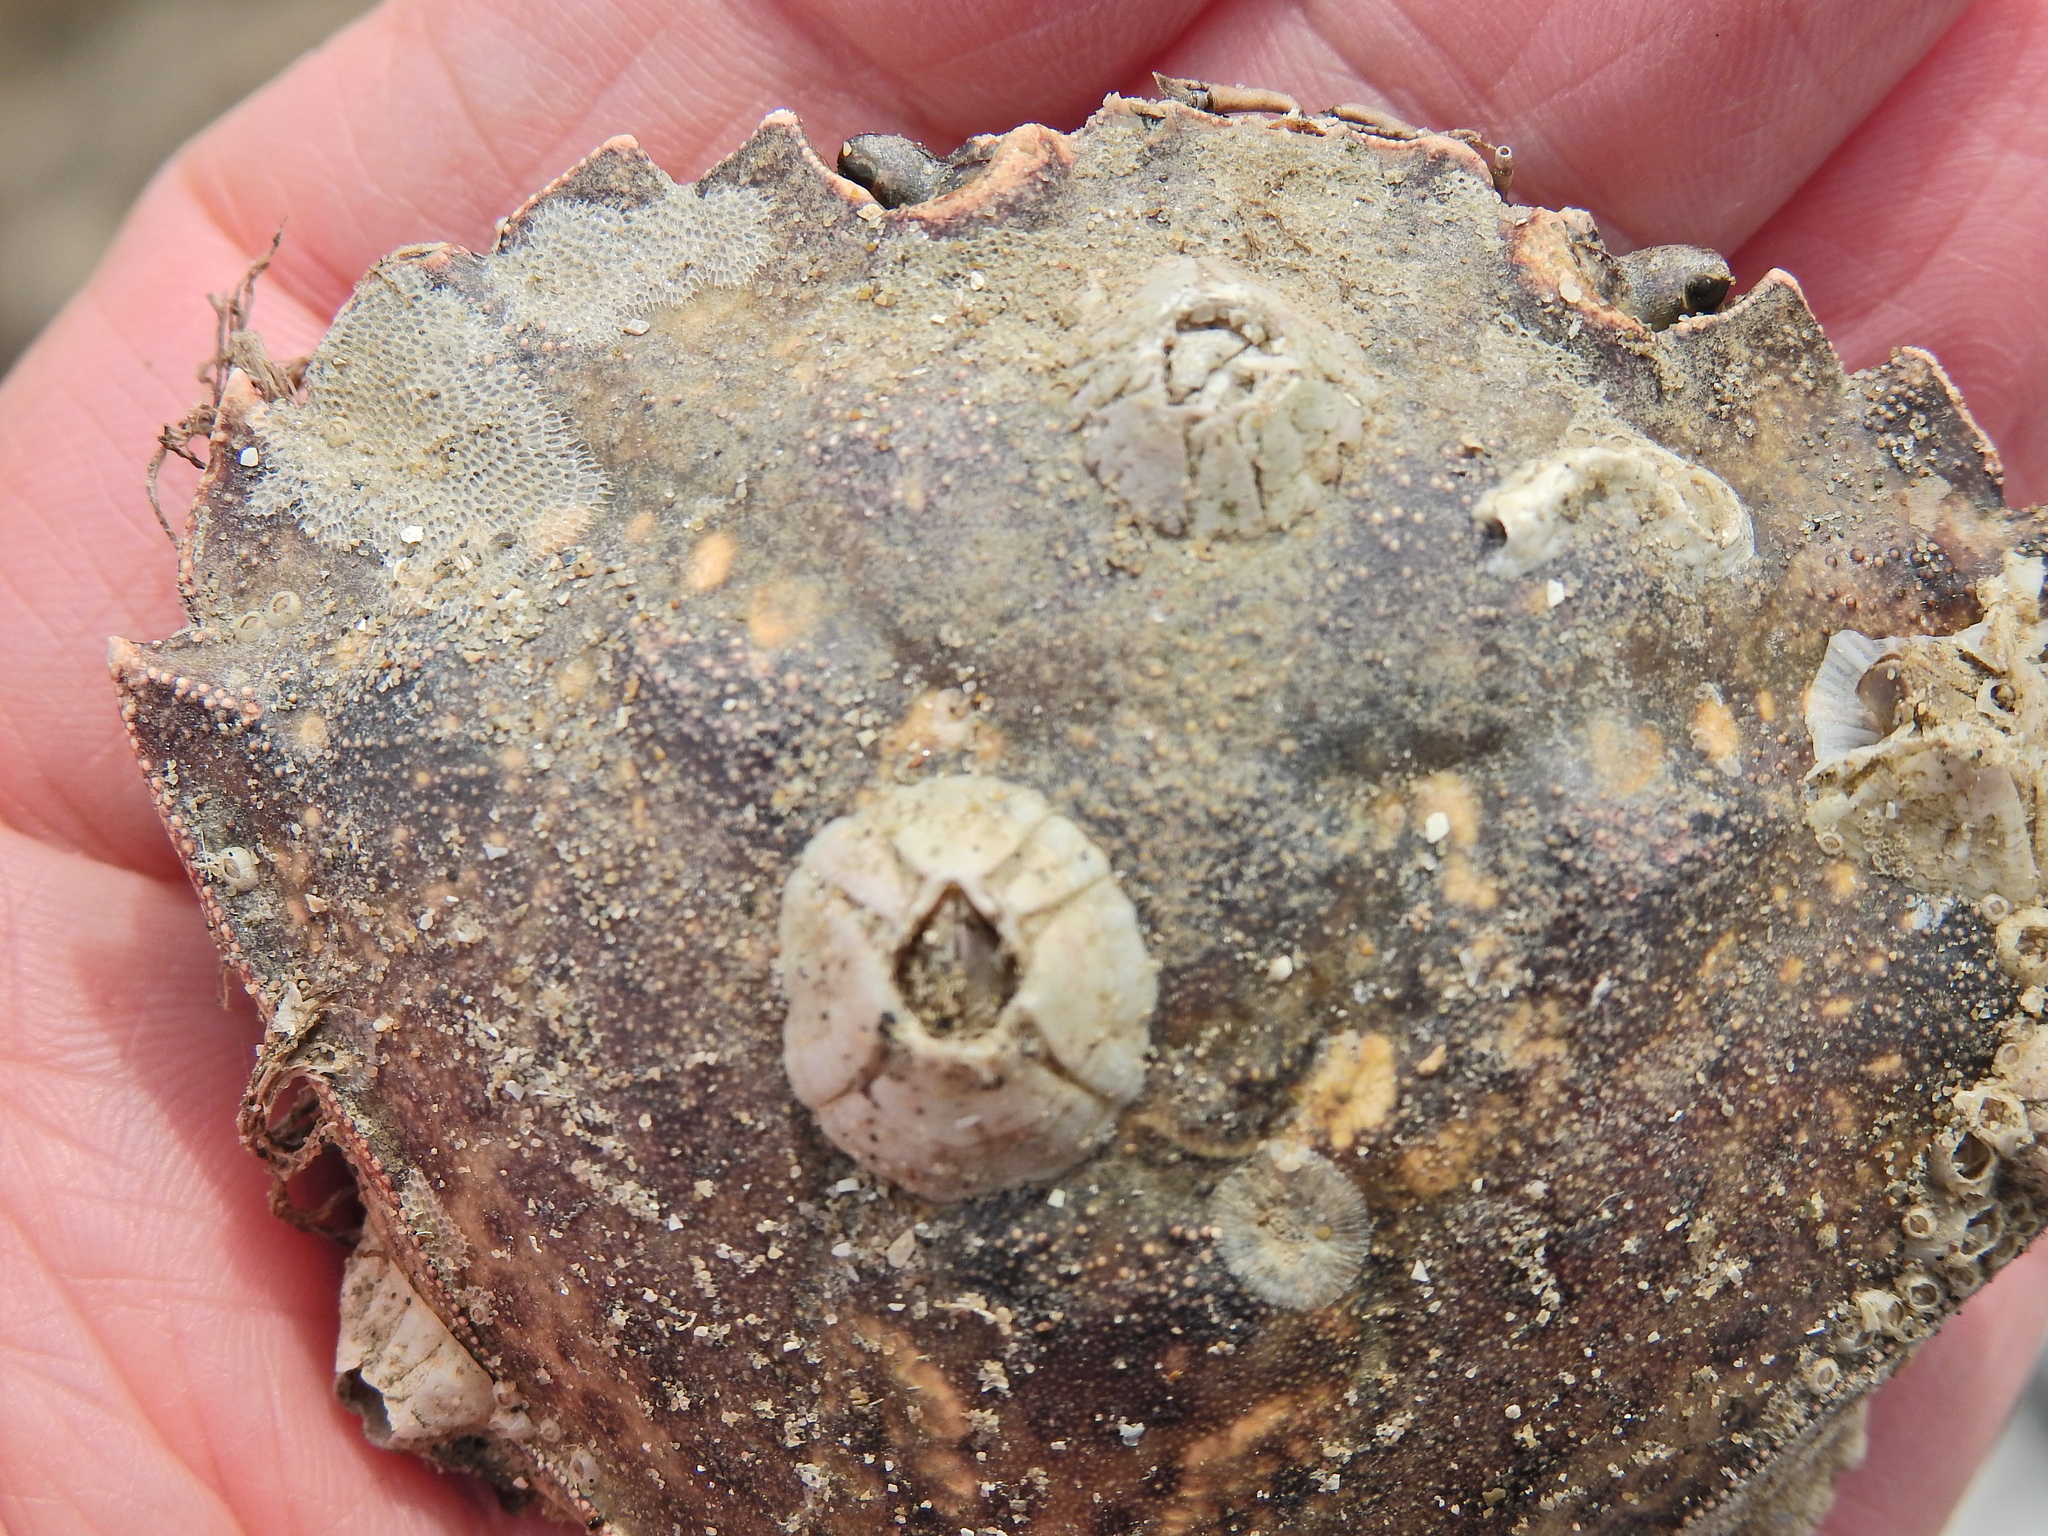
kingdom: Animalia
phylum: Arthropoda
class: Malacostraca
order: Decapoda
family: Carcinidae
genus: Carcinus
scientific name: Carcinus maenas
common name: European green crab
